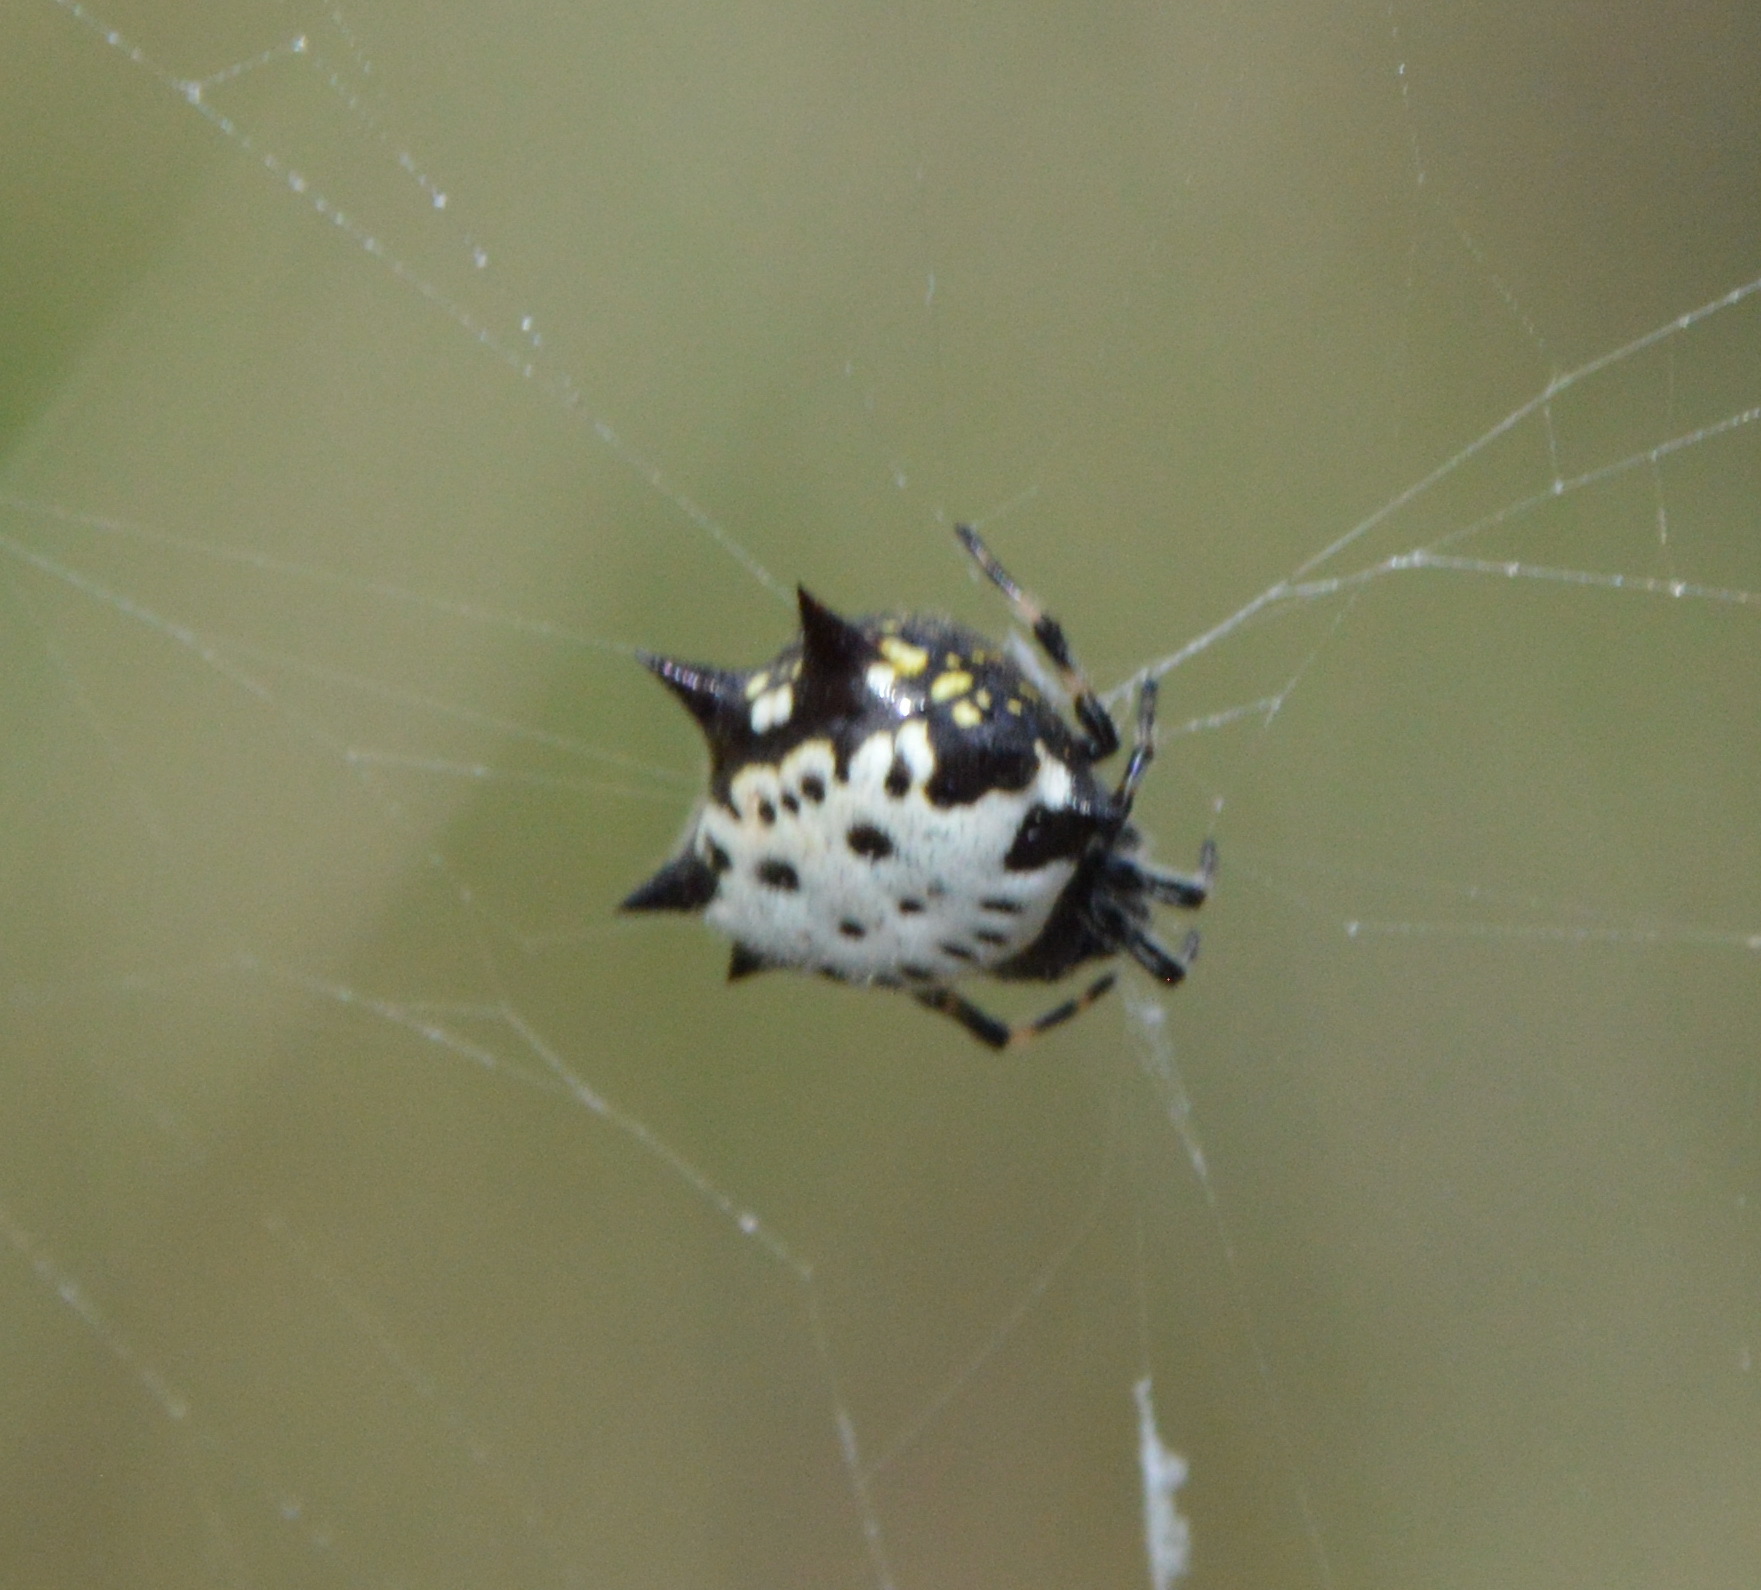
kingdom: Animalia
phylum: Arthropoda
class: Arachnida
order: Araneae
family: Araneidae
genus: Gasteracantha
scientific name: Gasteracantha cancriformis
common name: Orb weavers
